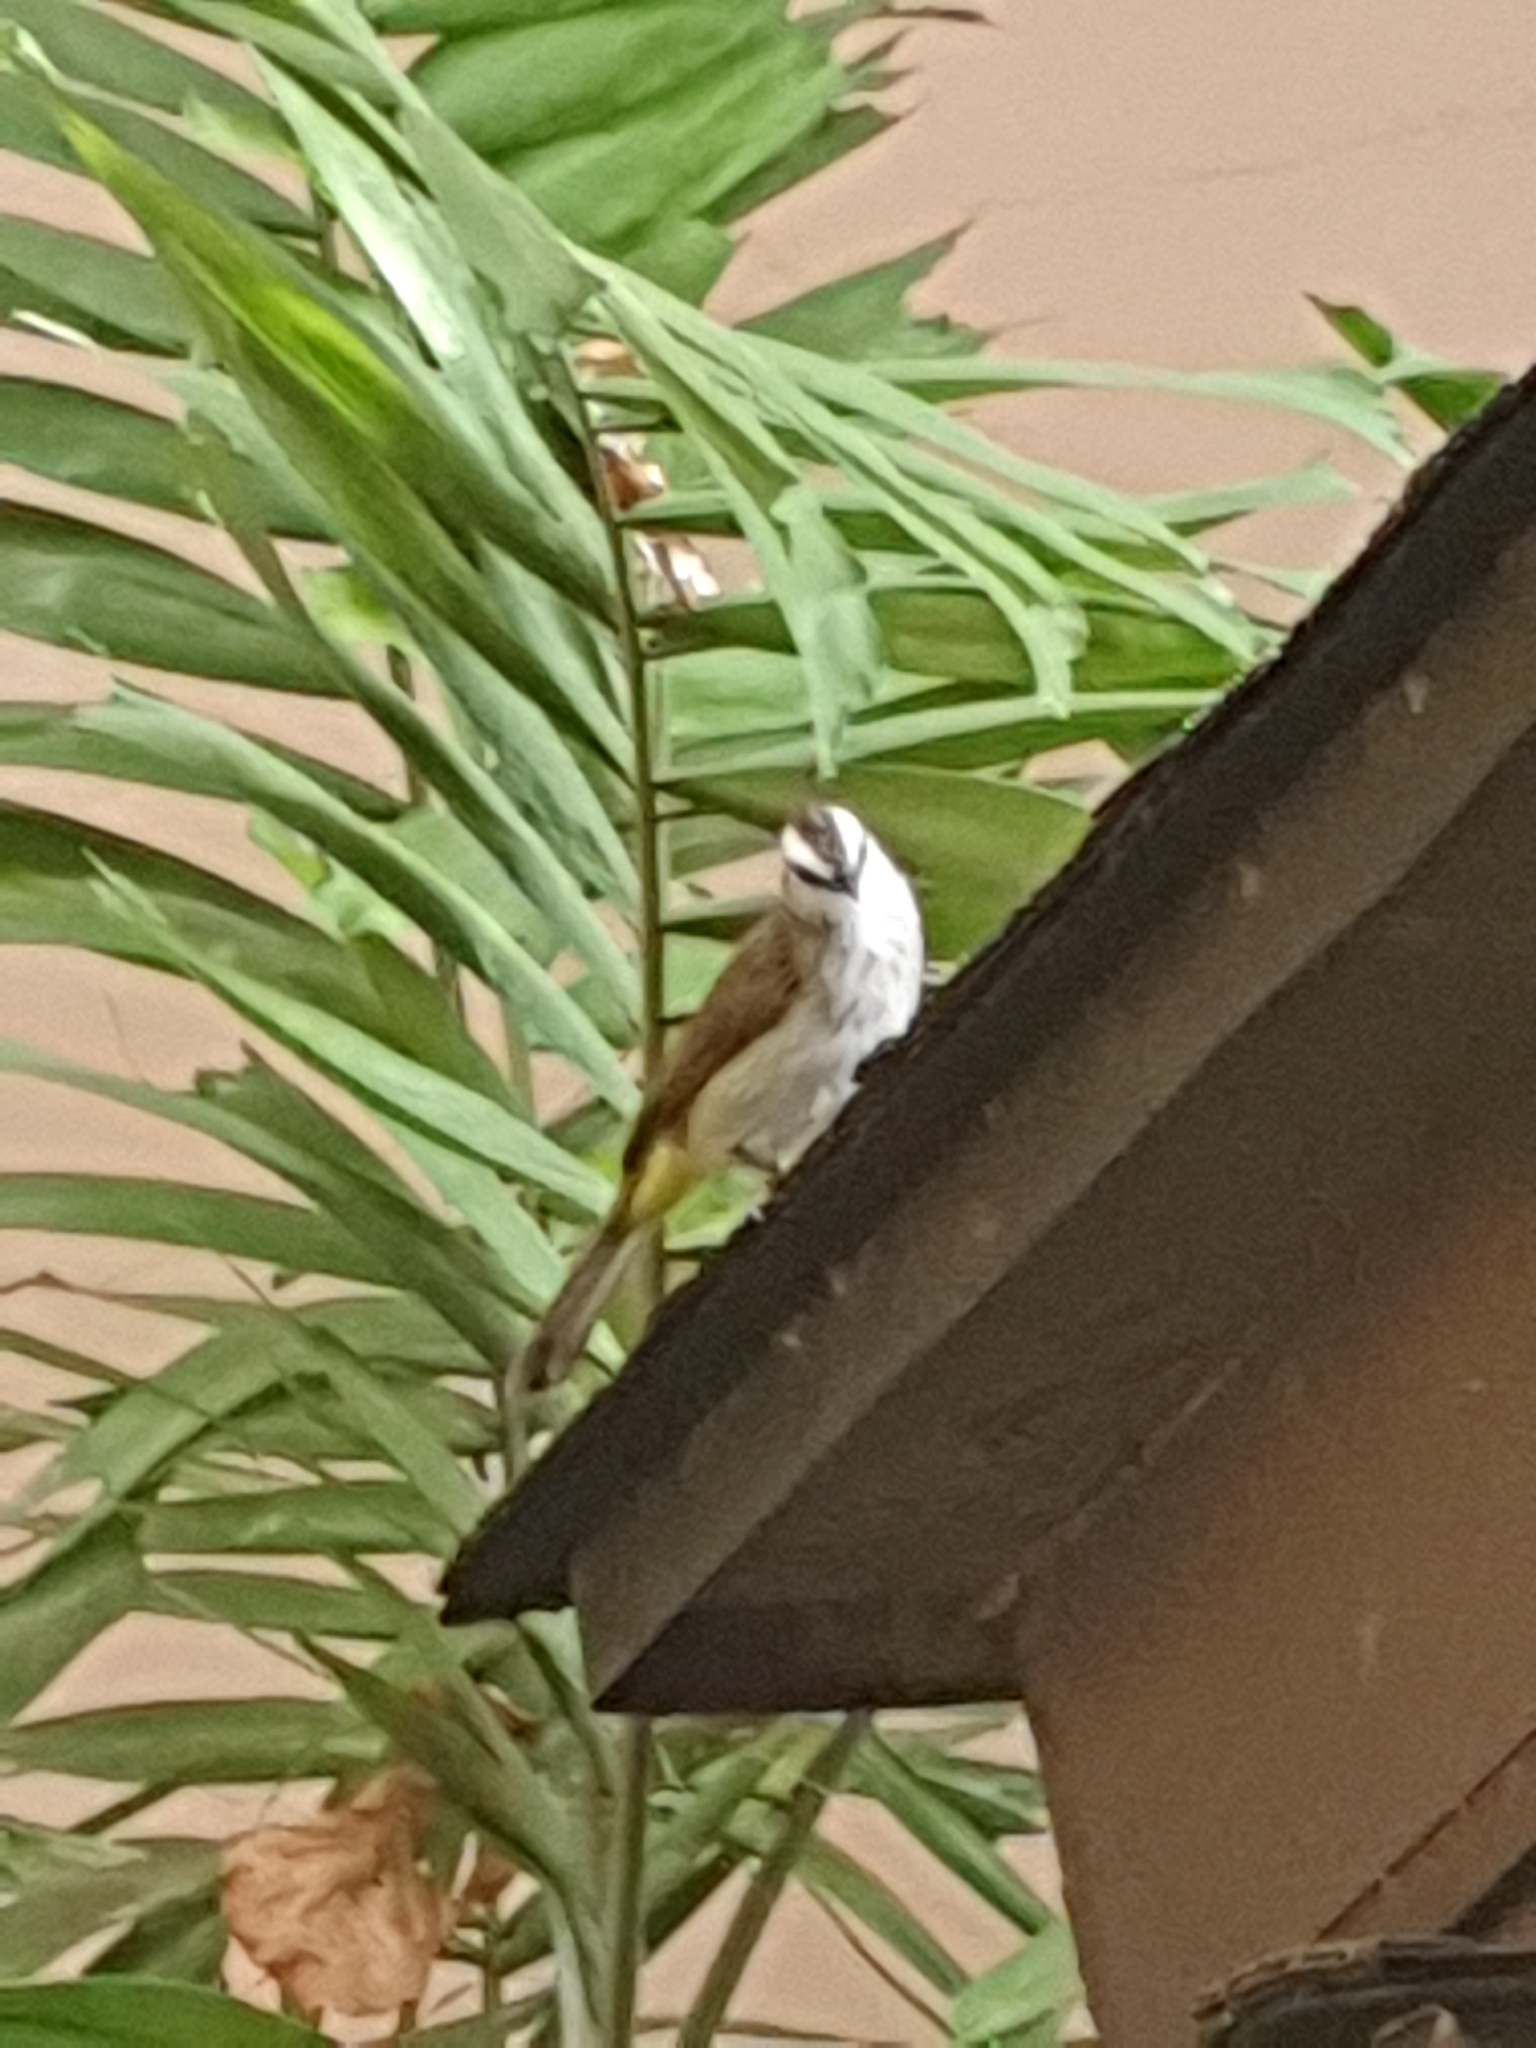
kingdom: Animalia
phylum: Chordata
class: Aves
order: Passeriformes
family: Pycnonotidae
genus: Pycnonotus
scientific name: Pycnonotus goiavier
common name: Yellow-vented bulbul
